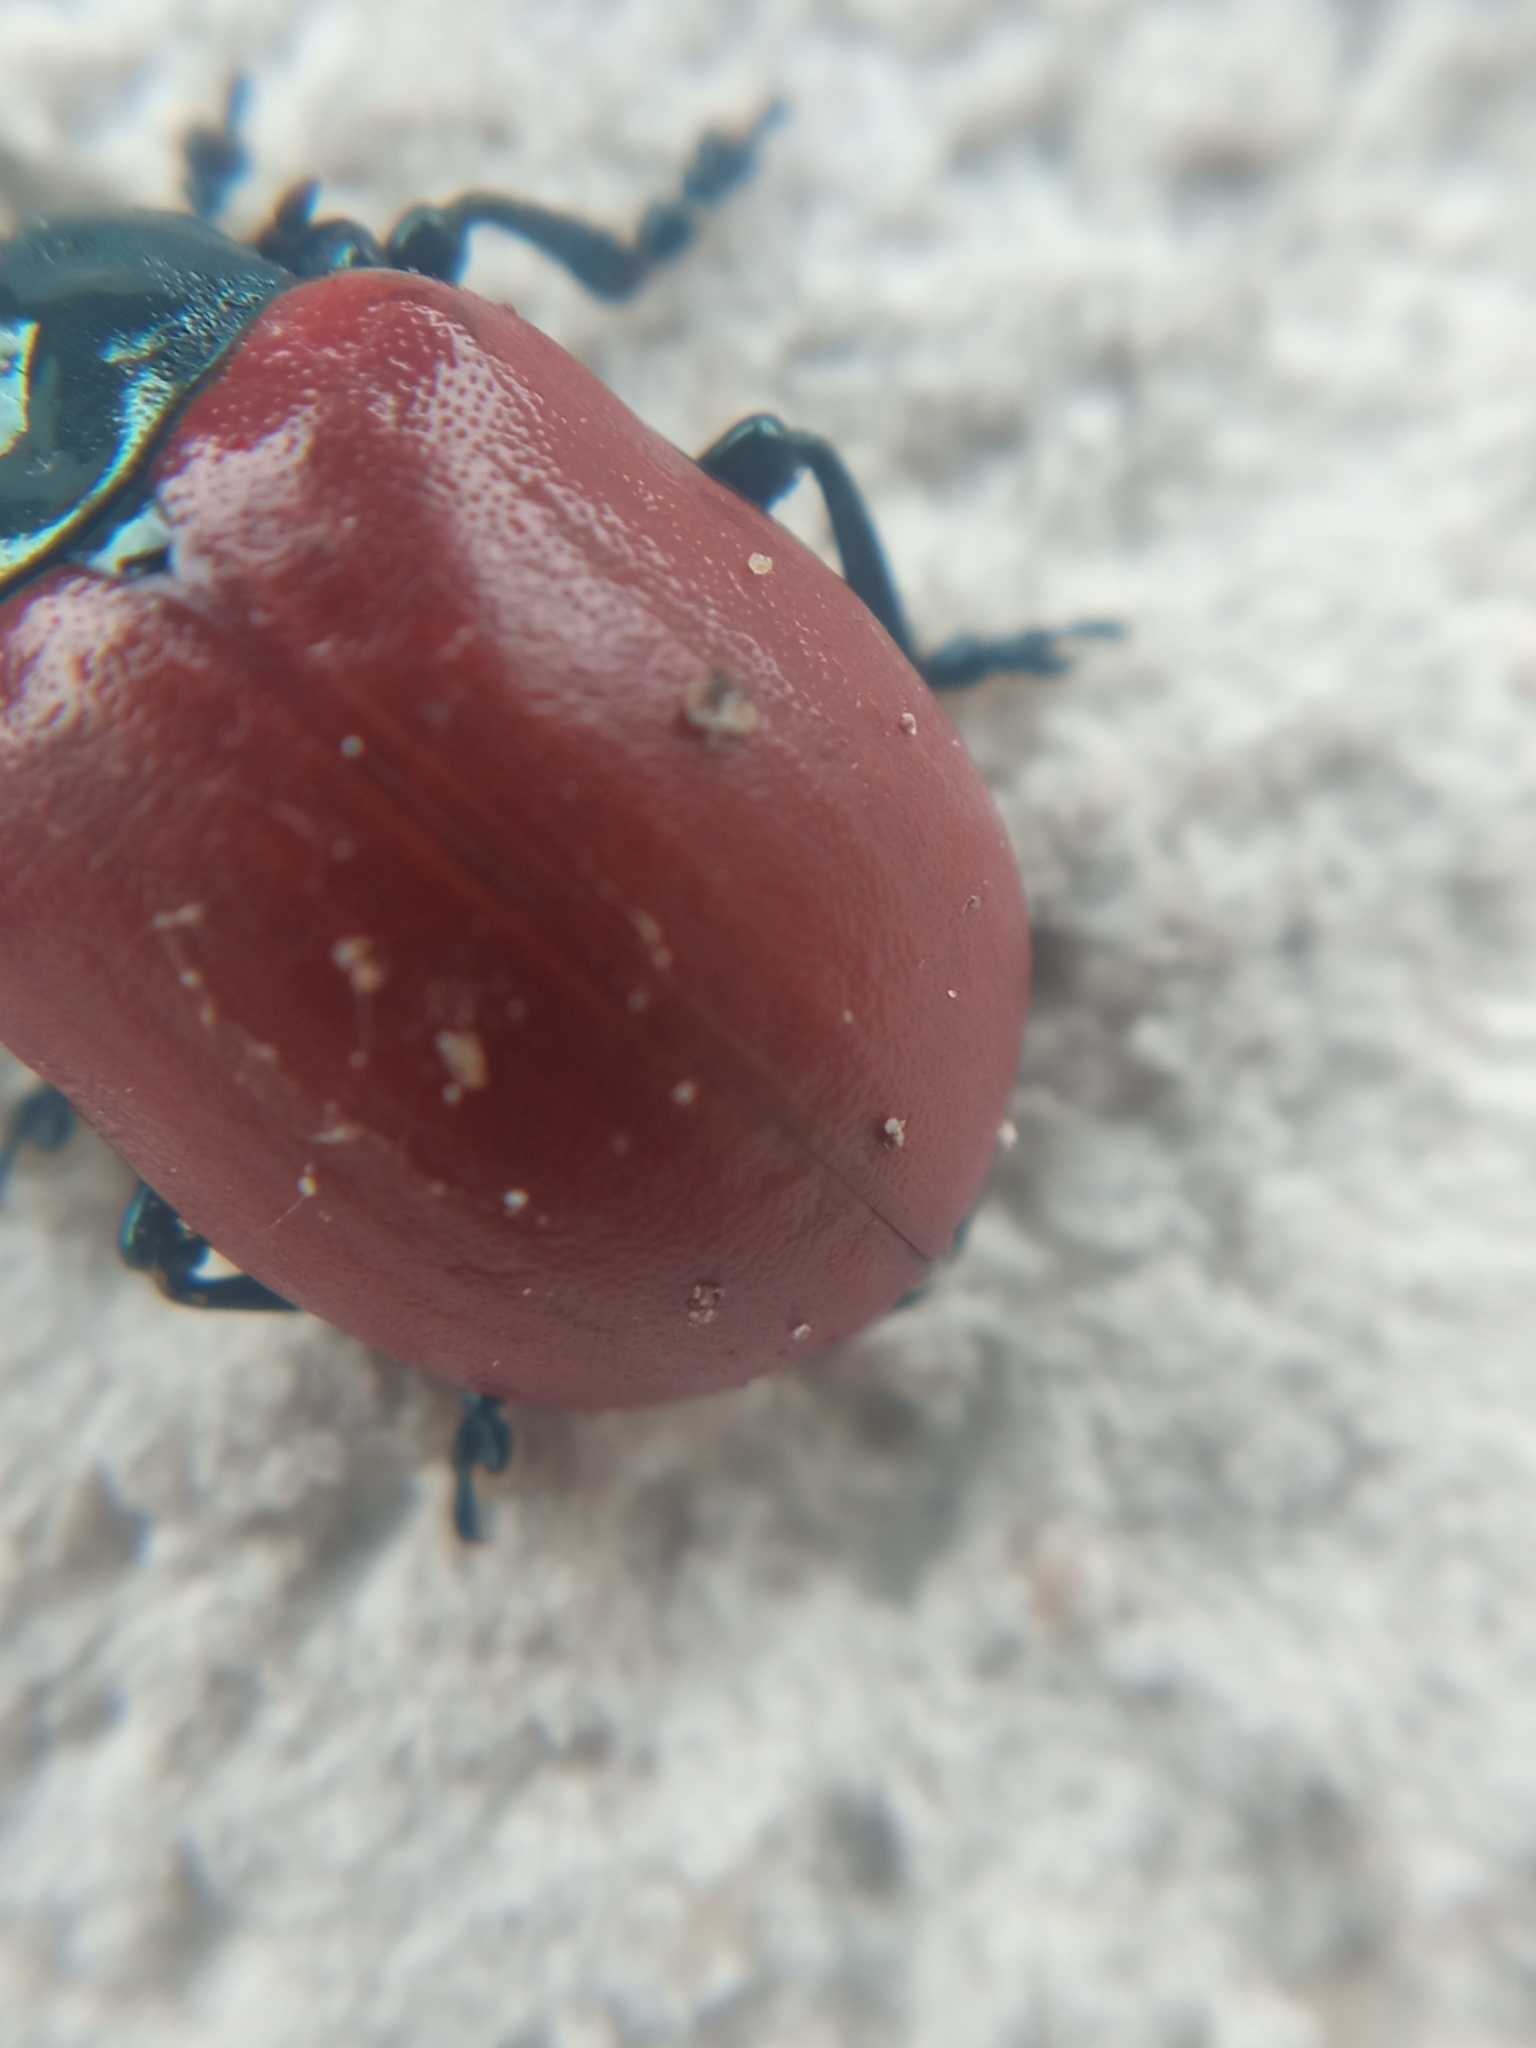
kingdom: Animalia
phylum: Arthropoda
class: Insecta
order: Coleoptera
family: Chrysomelidae
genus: Chrysomela
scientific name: Chrysomela populi
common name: Red poplar leaf beetle
